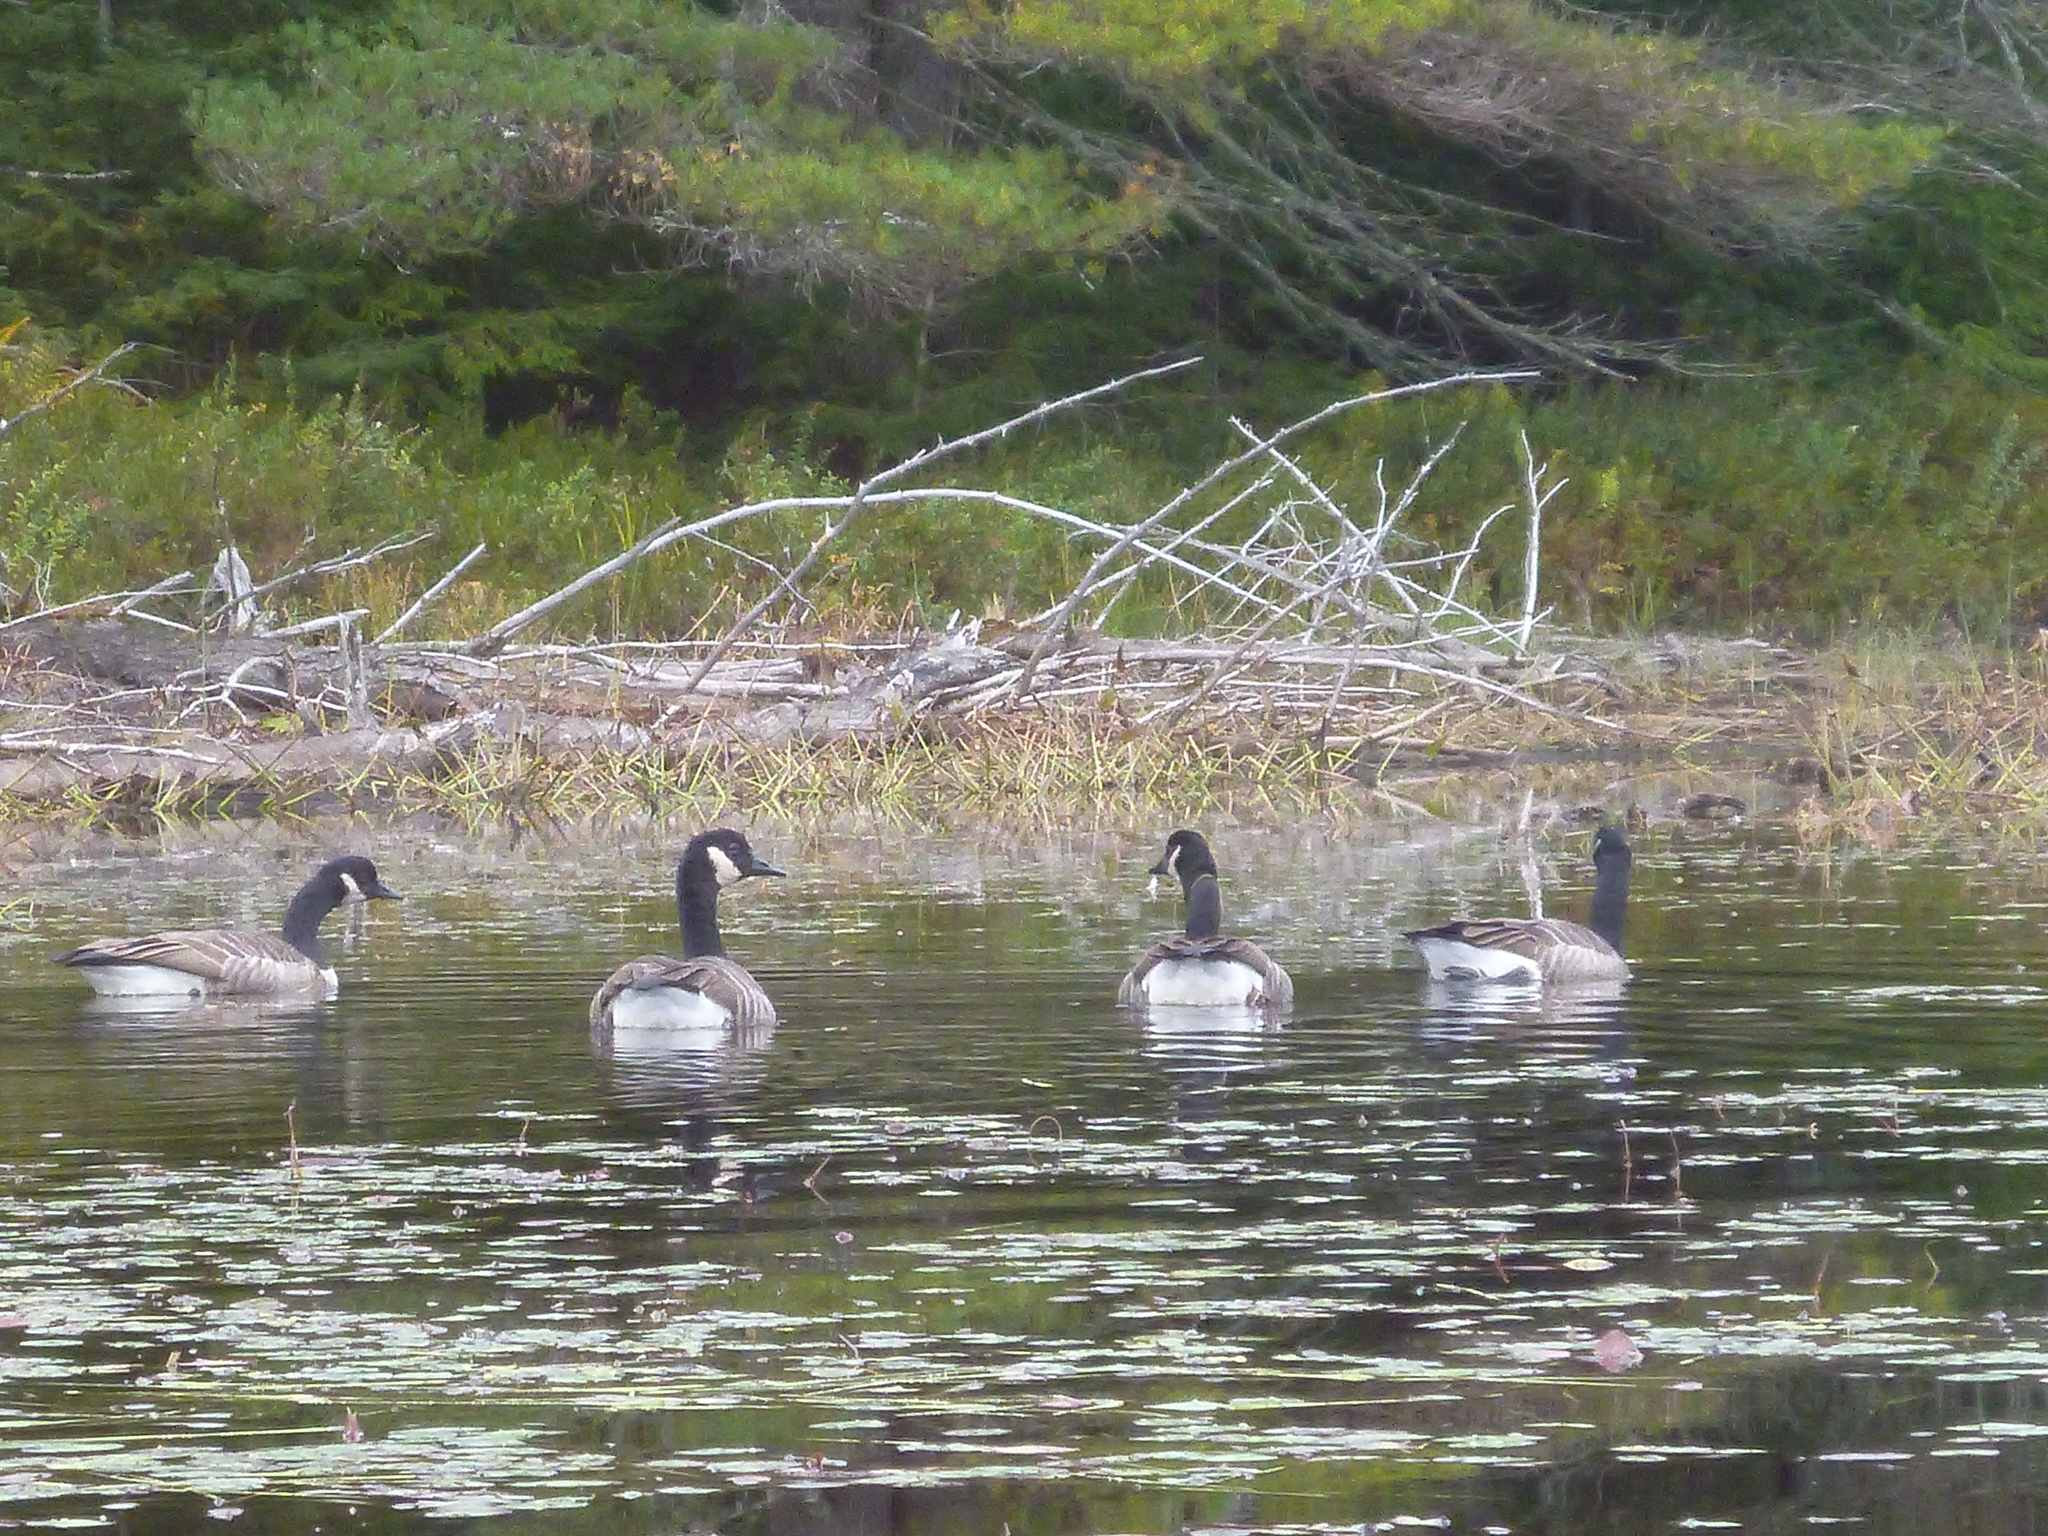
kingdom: Animalia
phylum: Chordata
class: Aves
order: Anseriformes
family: Anatidae
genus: Branta
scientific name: Branta canadensis
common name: Canada goose
